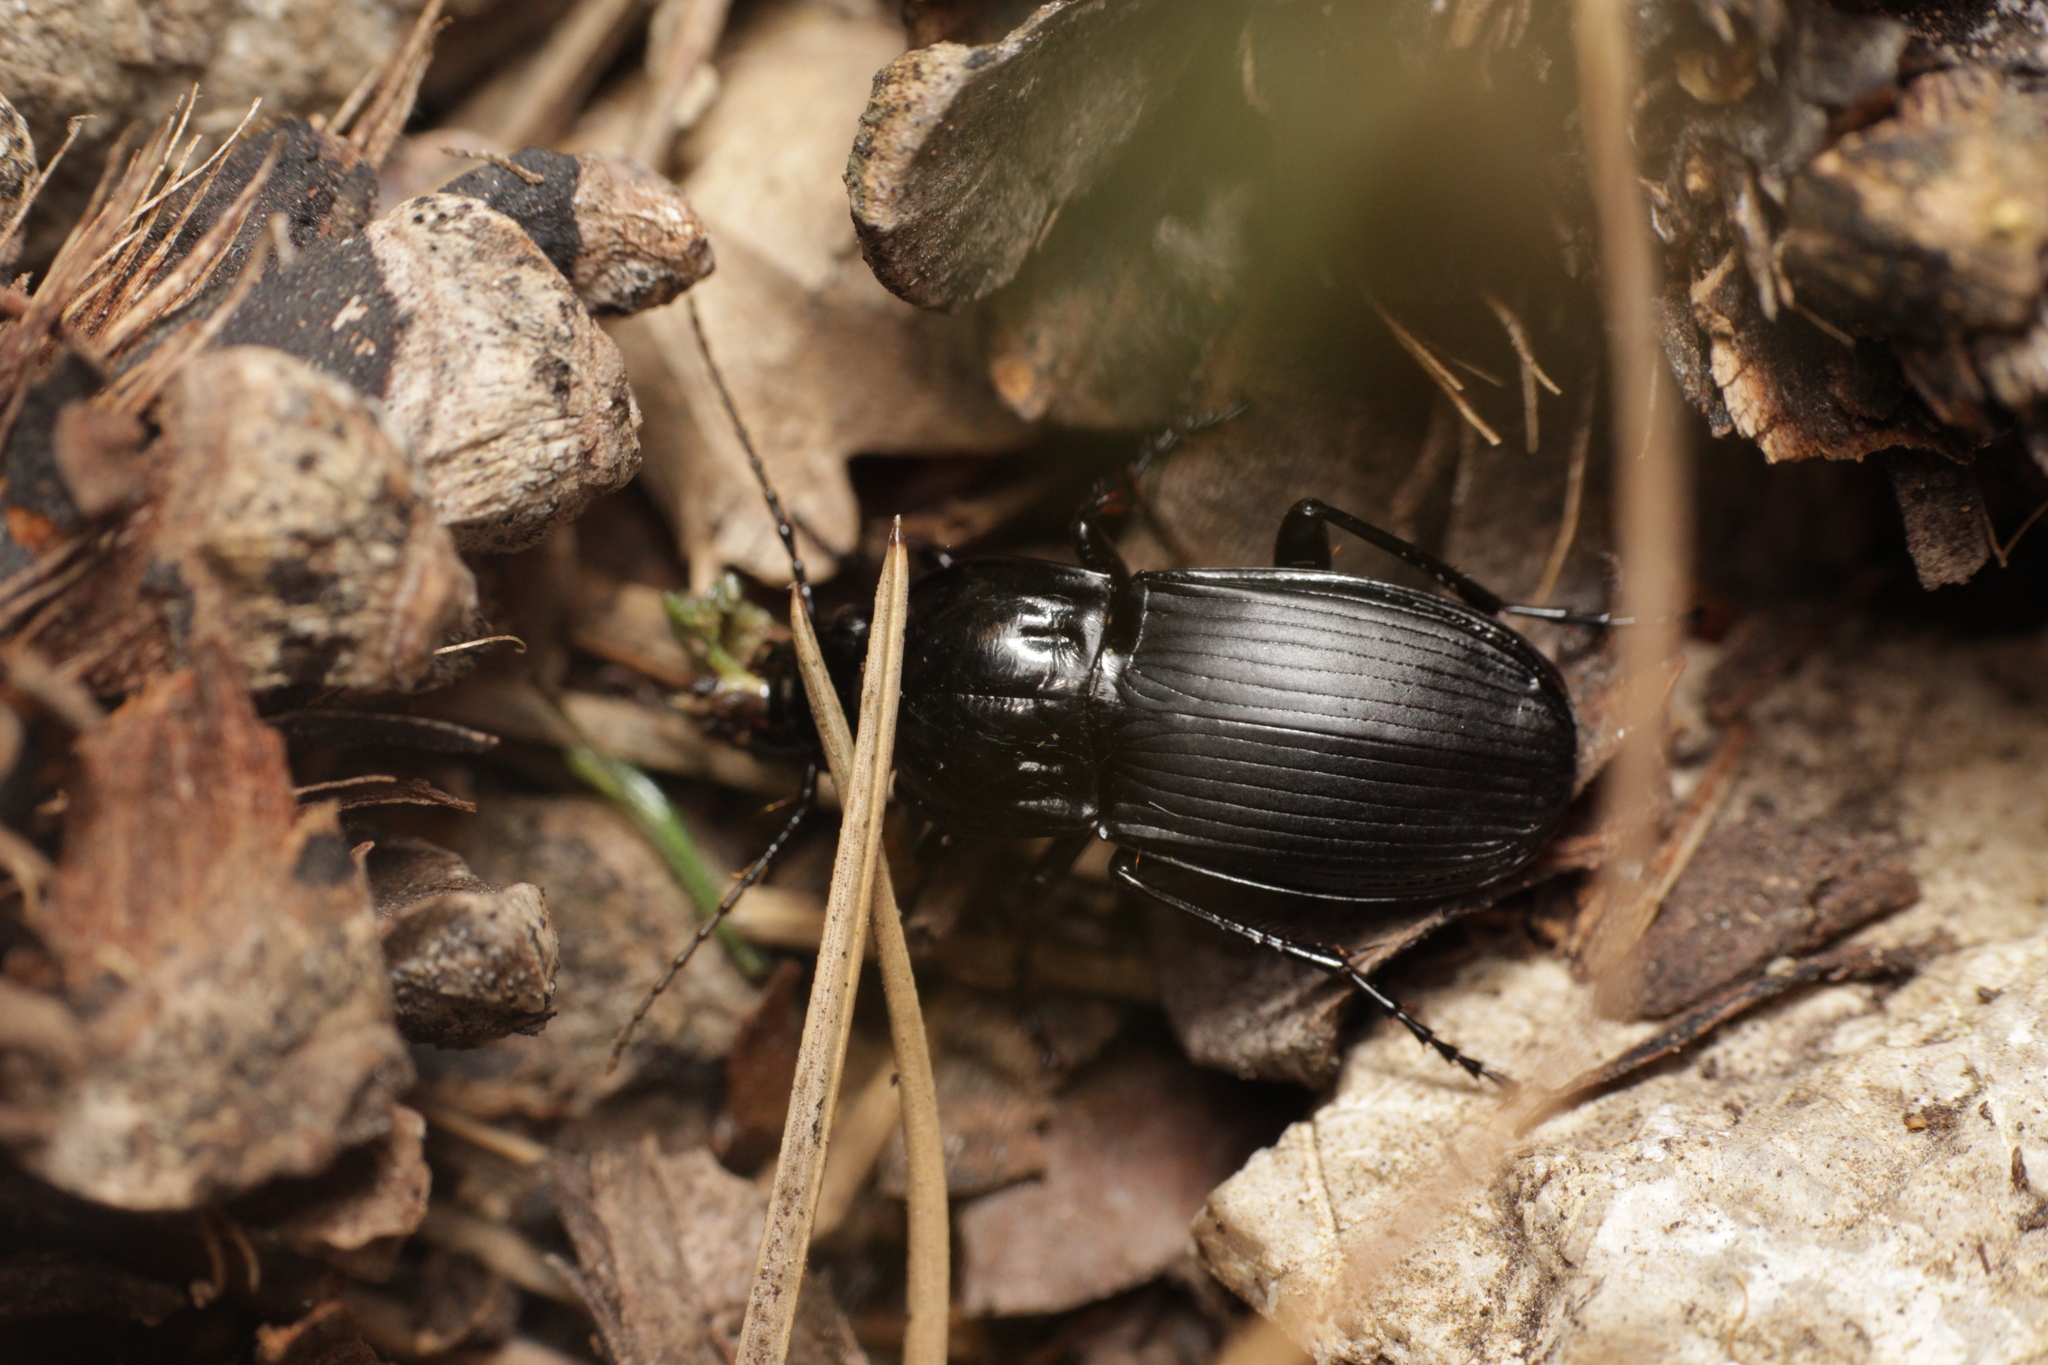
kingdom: Animalia
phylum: Arthropoda
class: Insecta
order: Coleoptera
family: Carabidae
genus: Abax
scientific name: Abax parallelepipedus
